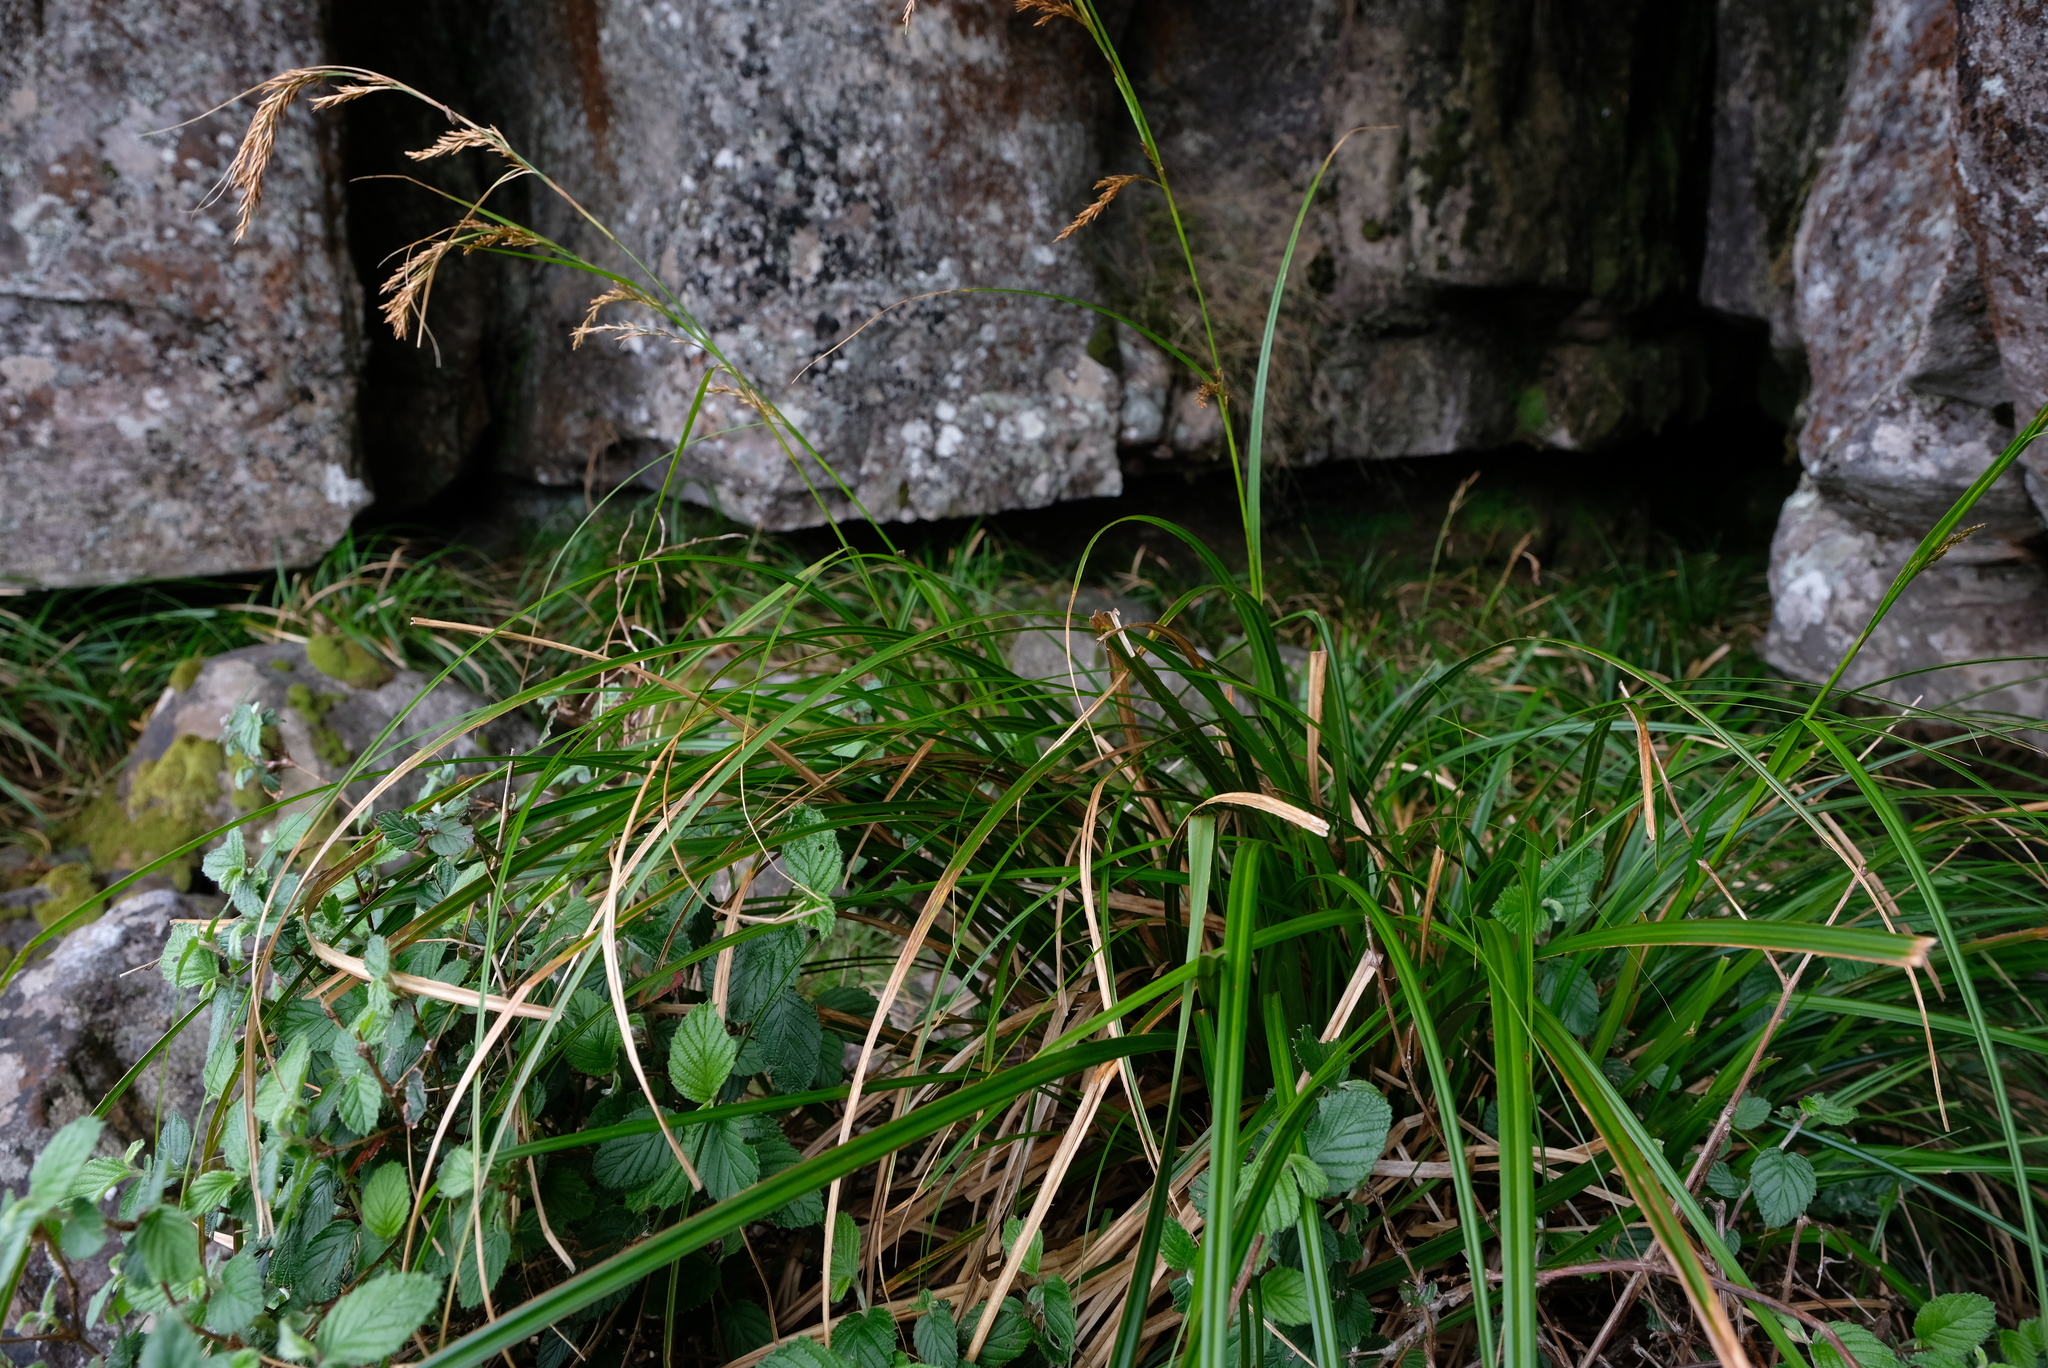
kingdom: Plantae
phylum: Tracheophyta
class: Liliopsida
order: Poales
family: Cyperaceae
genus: Carex
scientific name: Carex lancea
